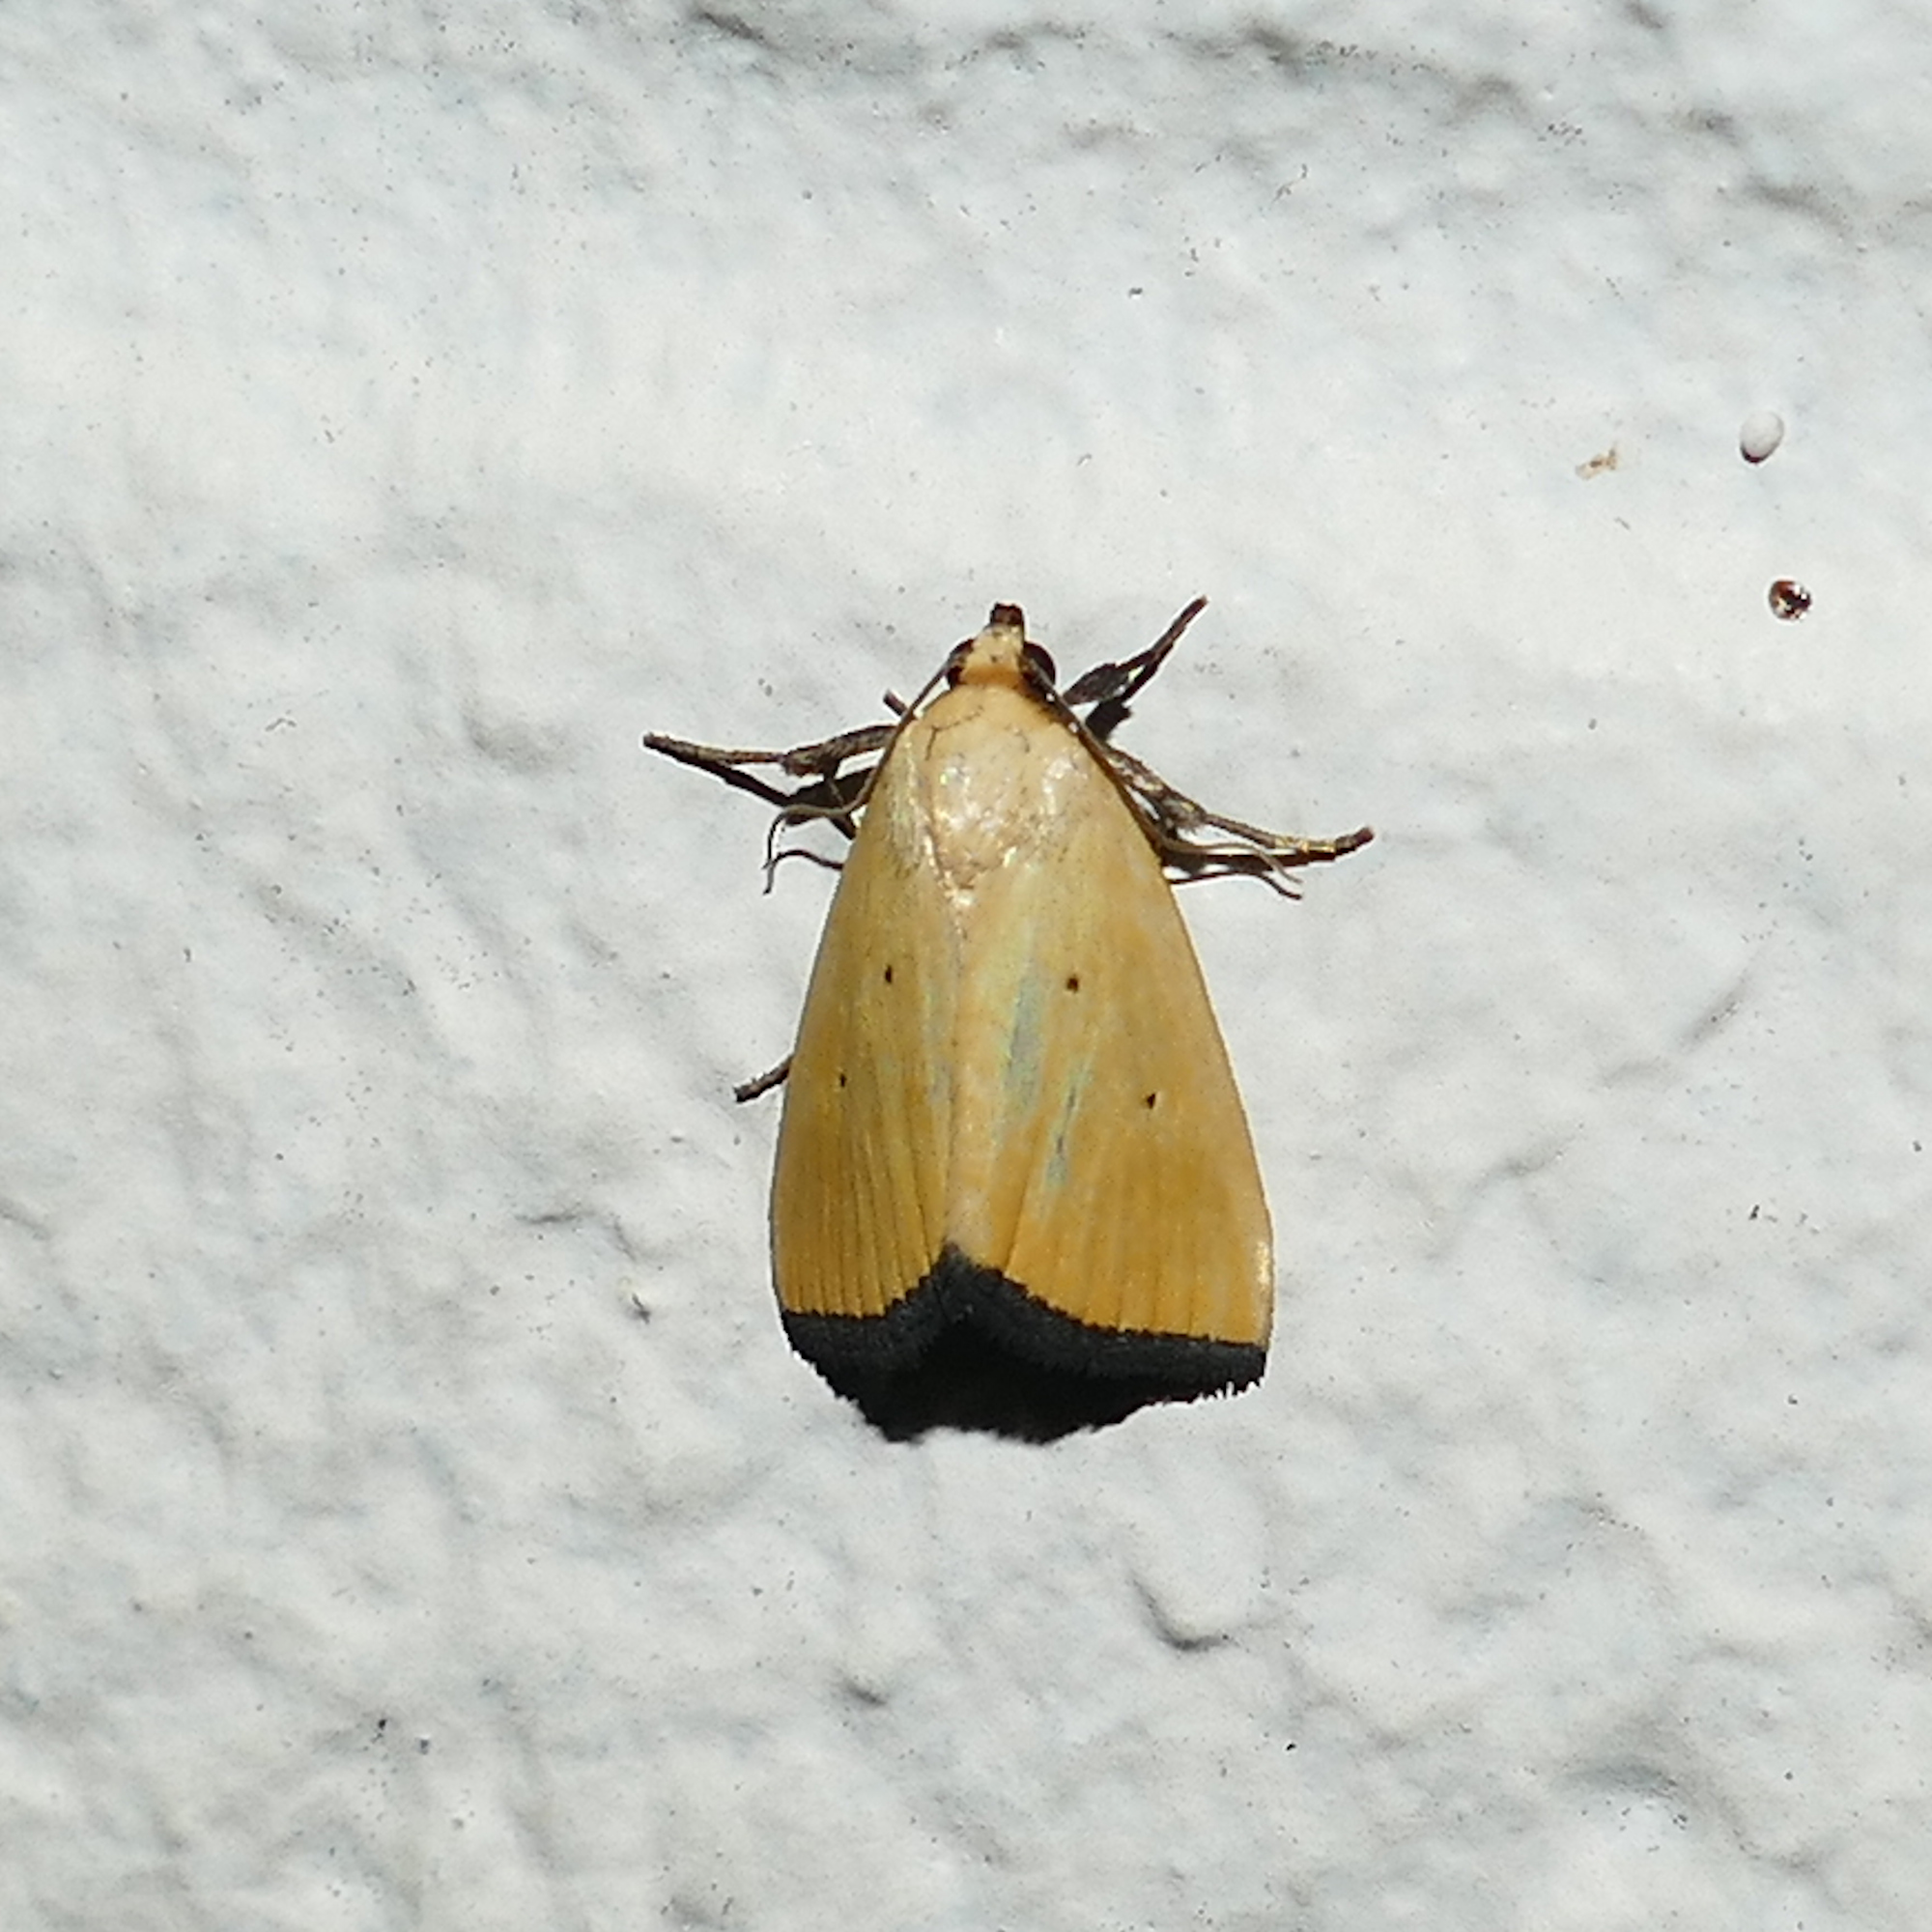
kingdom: Animalia
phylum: Arthropoda
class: Insecta
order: Lepidoptera
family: Noctuidae
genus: Marimatha
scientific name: Marimatha nigrofimbria
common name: Black-bordered lemon moth
